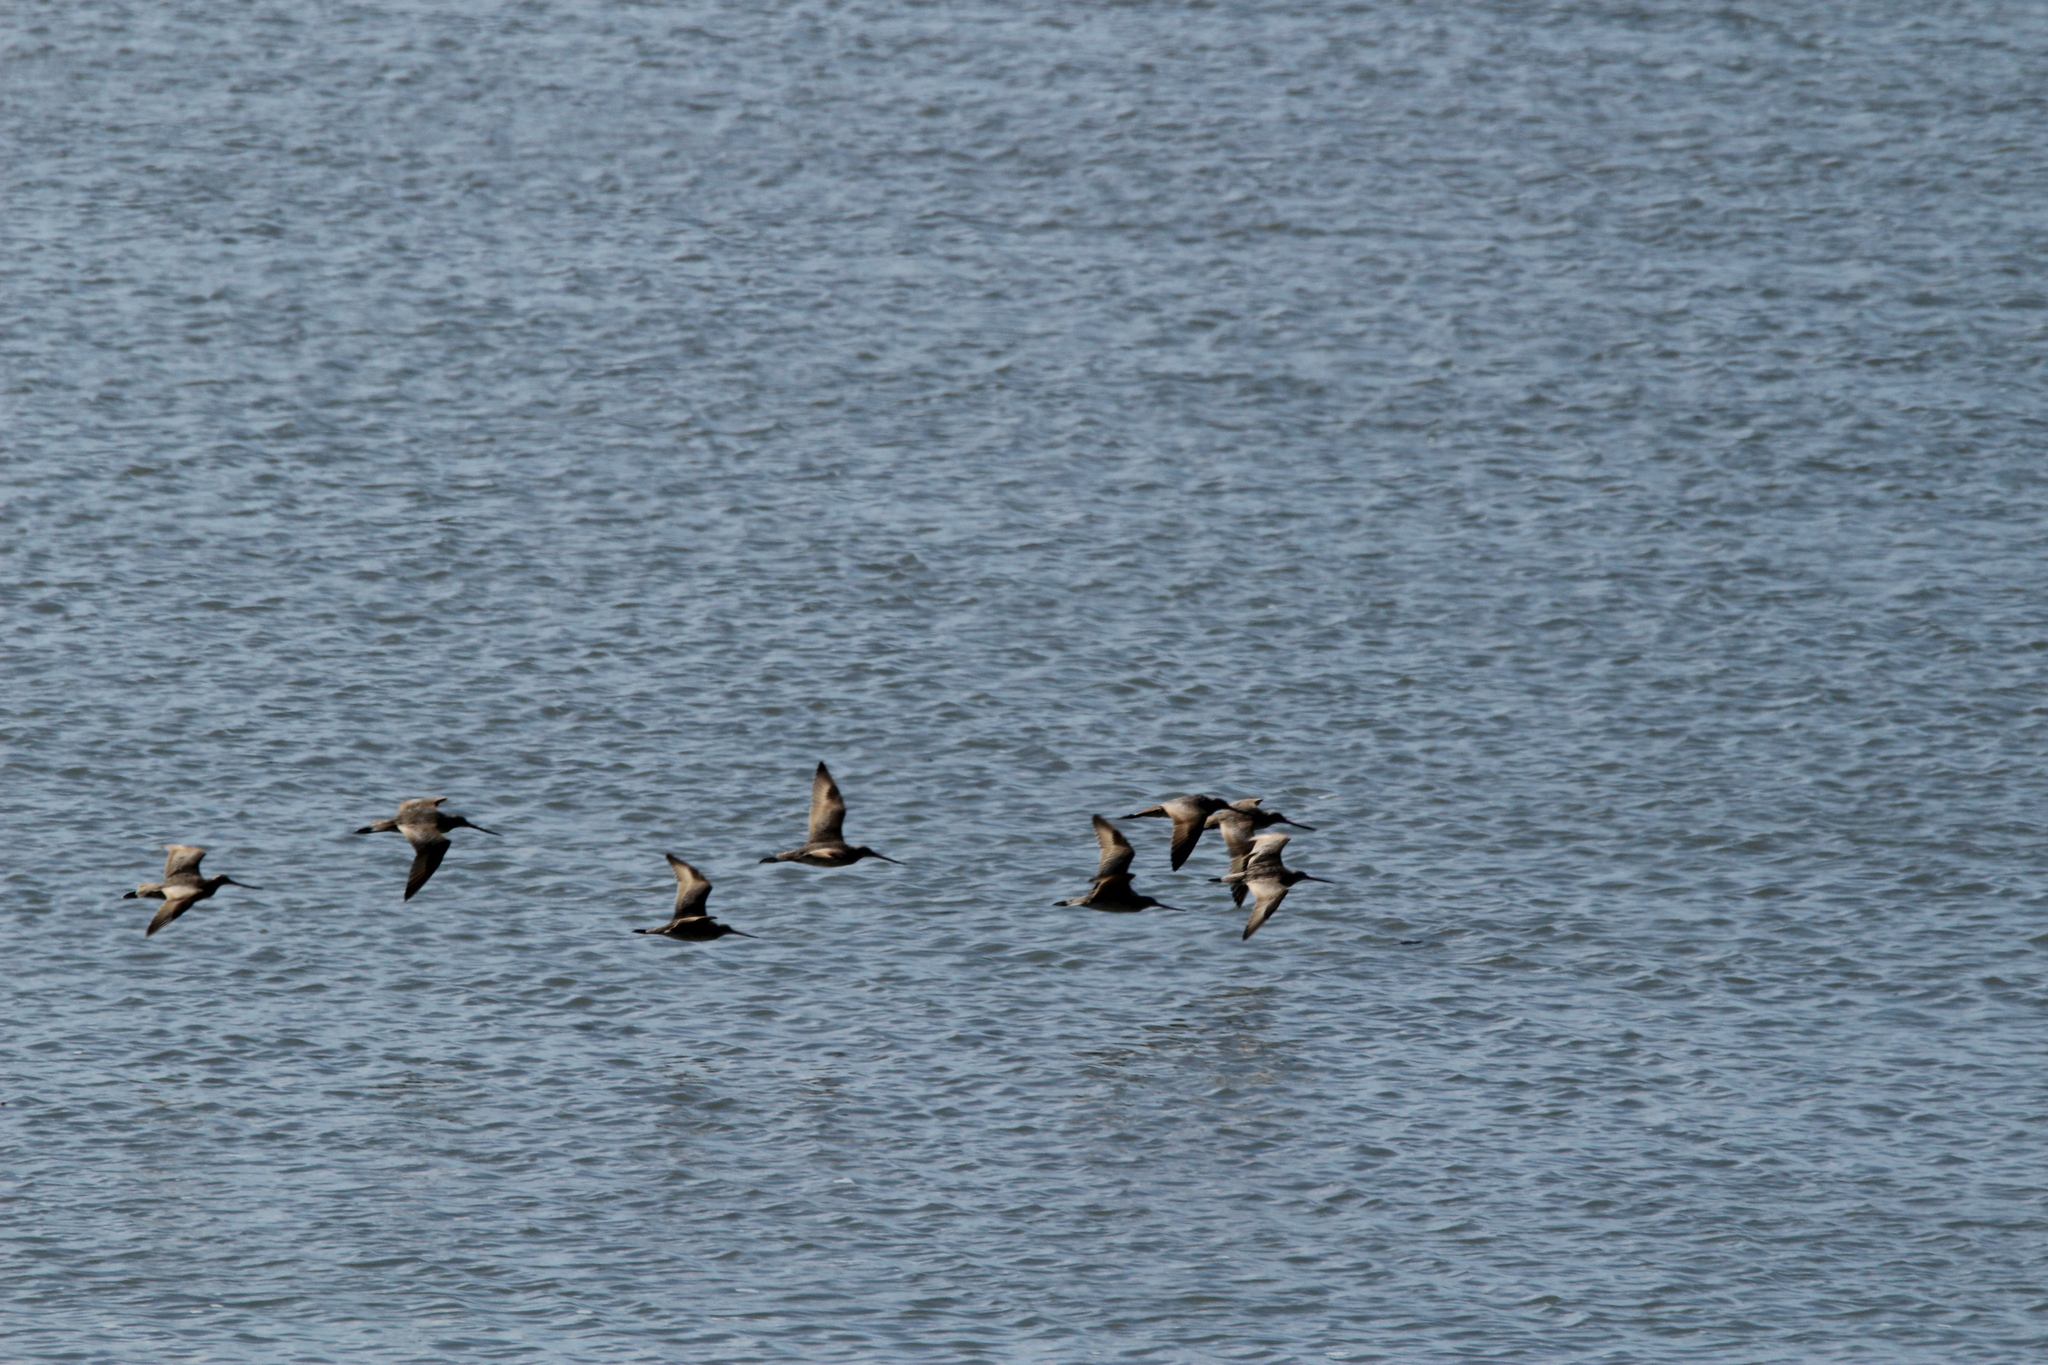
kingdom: Animalia
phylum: Chordata
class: Aves
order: Charadriiformes
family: Scolopacidae
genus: Limosa
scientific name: Limosa fedoa
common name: Marbled godwit
